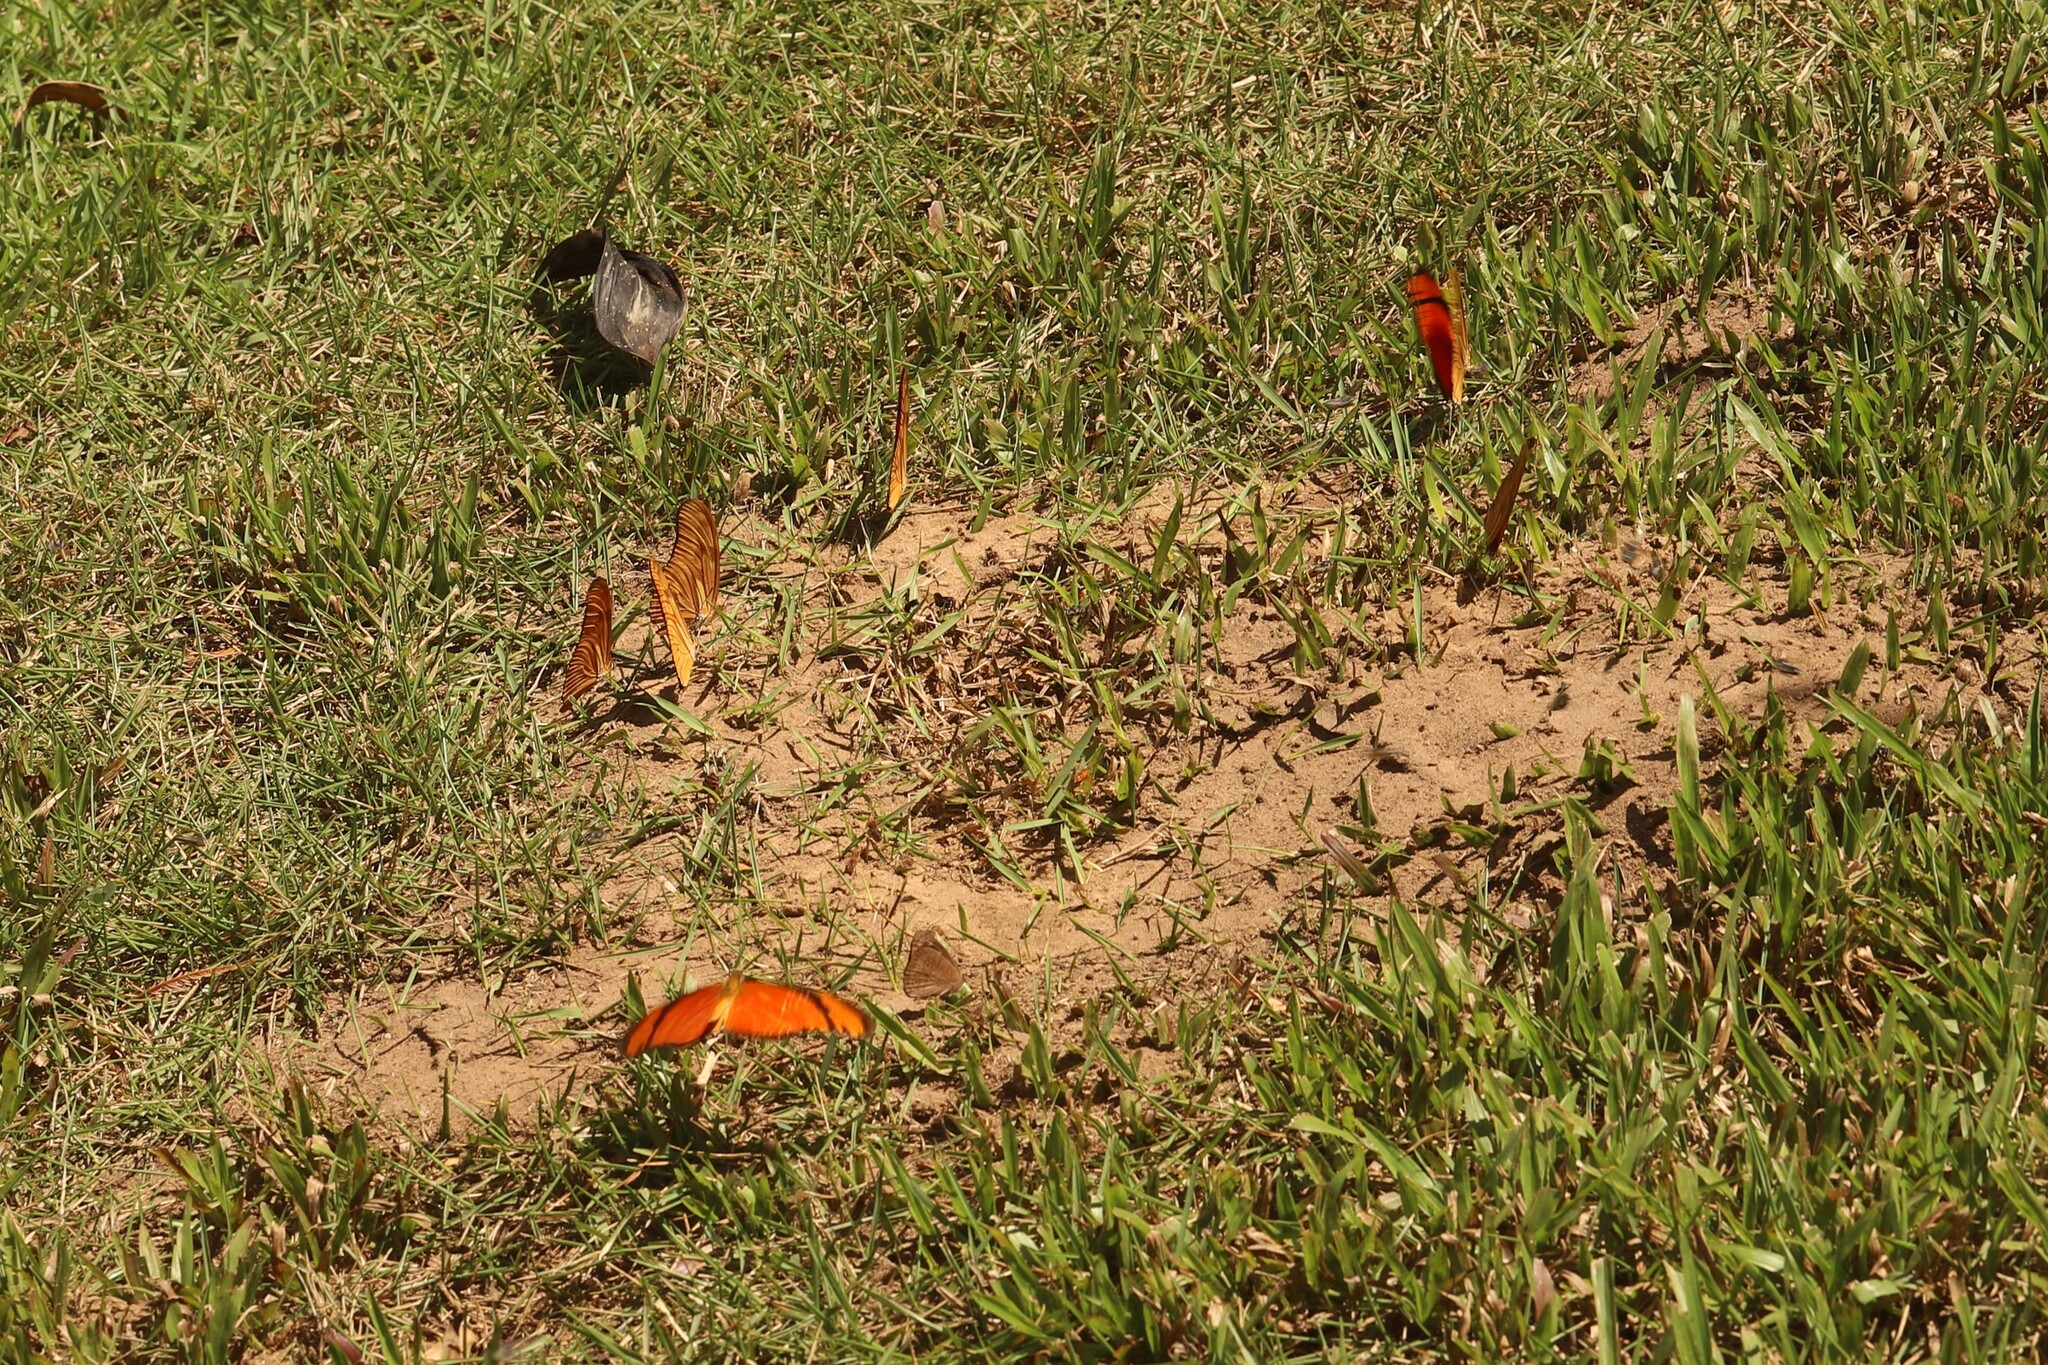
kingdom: Animalia
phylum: Arthropoda
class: Insecta
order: Lepidoptera
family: Nymphalidae
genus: Dryas
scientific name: Dryas iulia
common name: Flambeau
